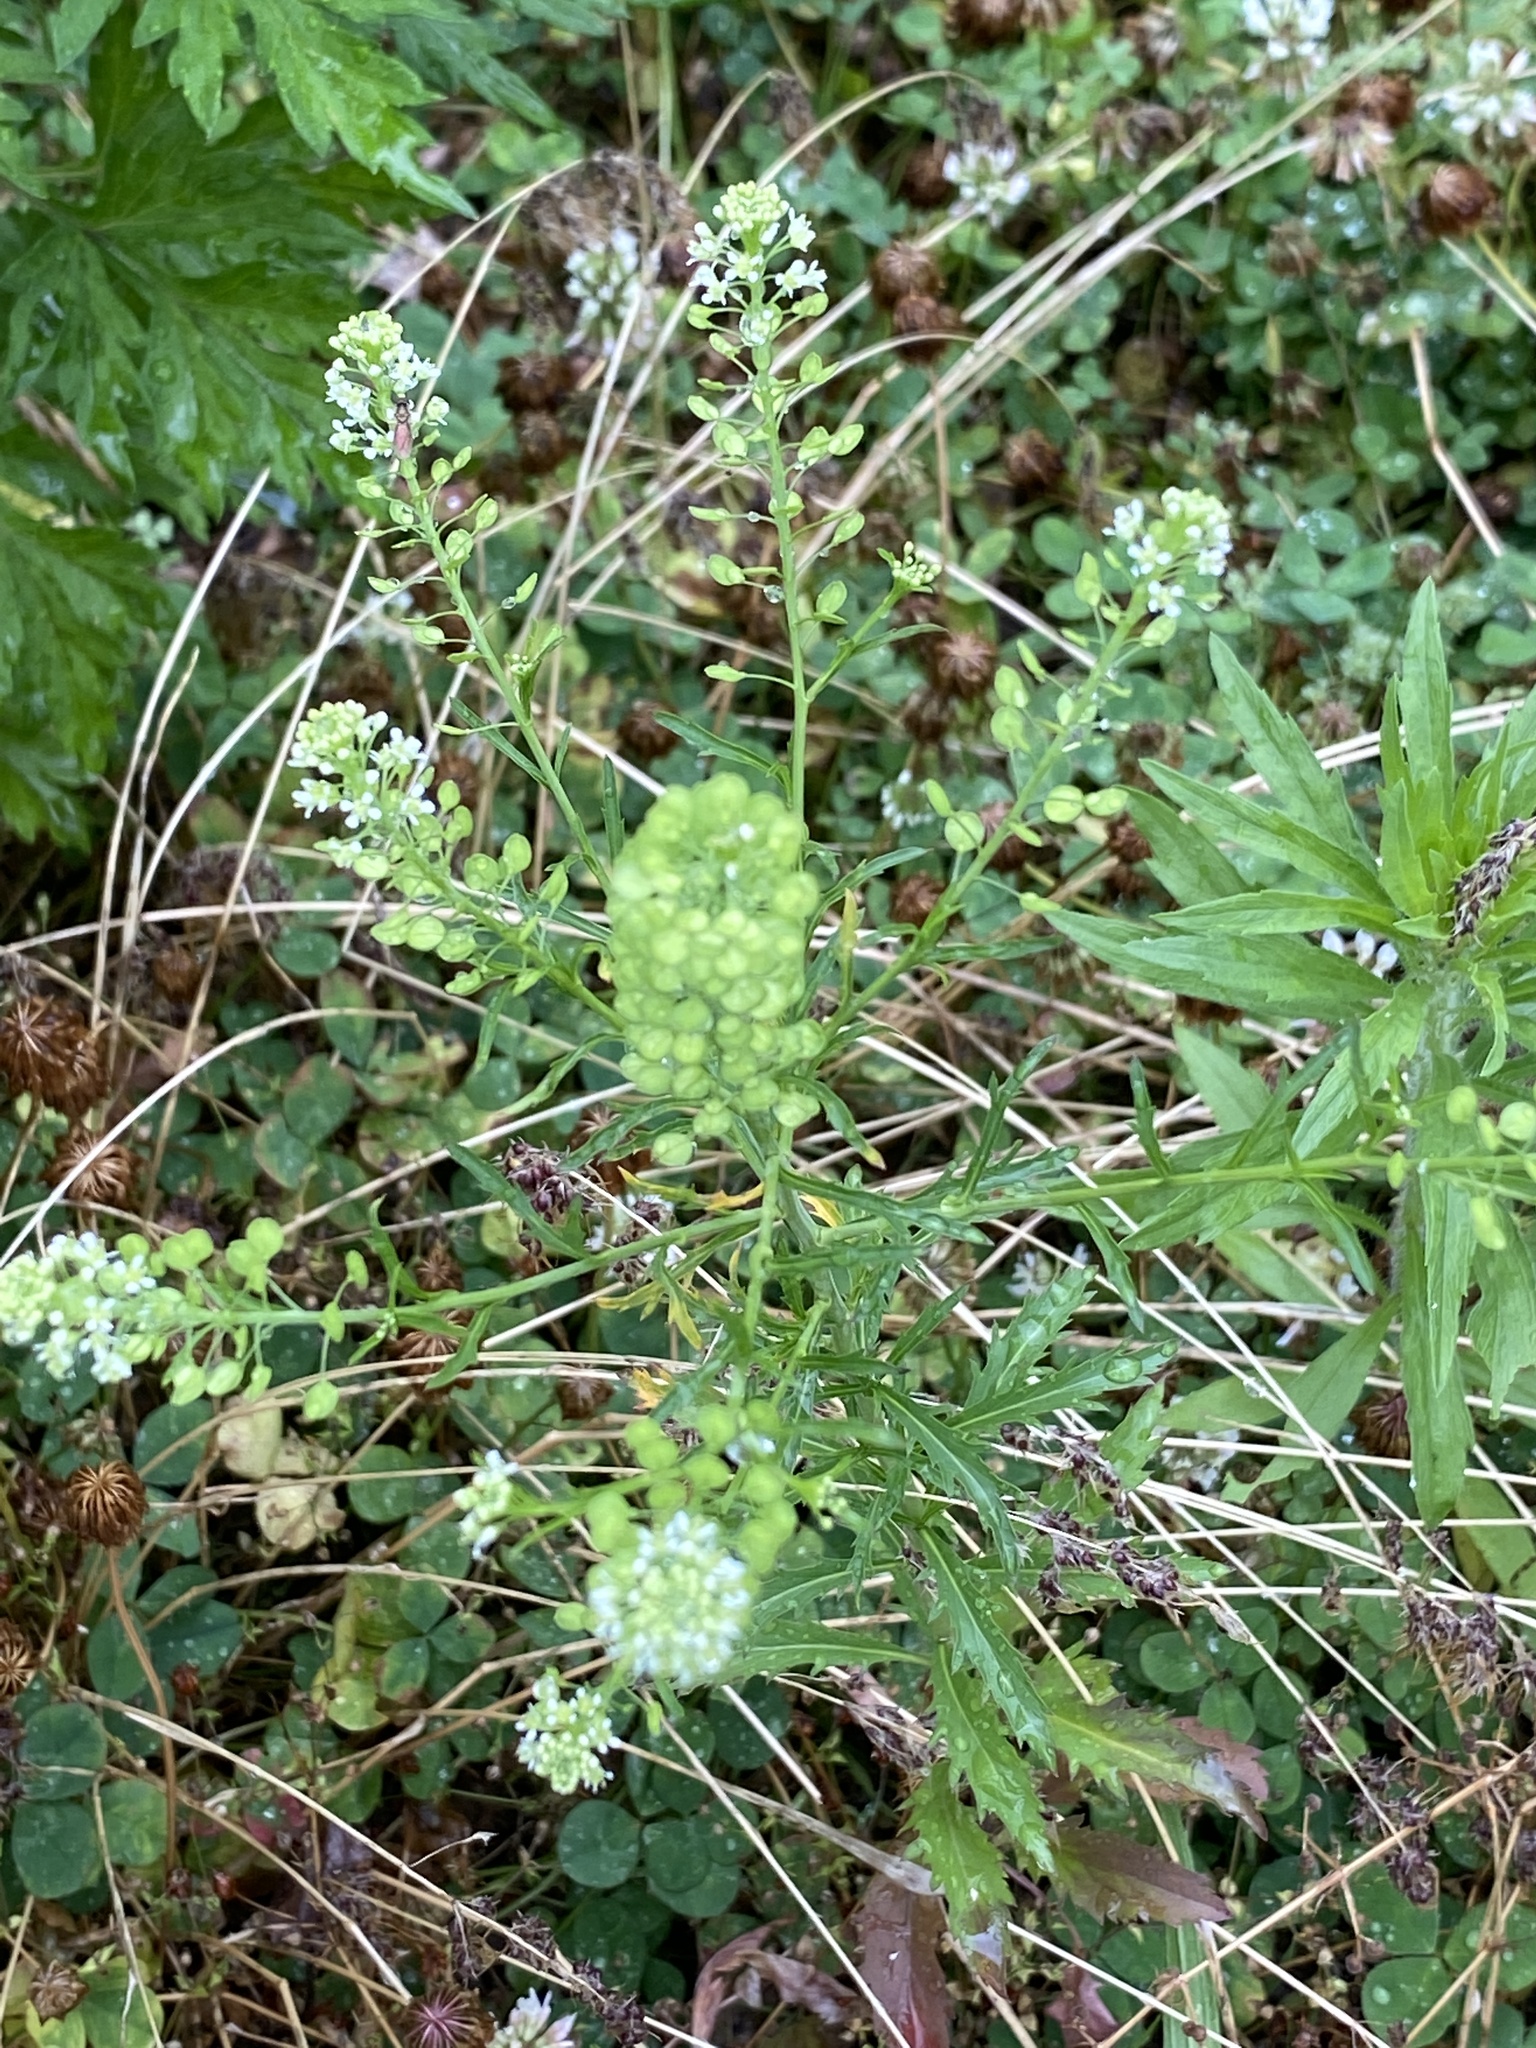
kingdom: Plantae
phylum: Tracheophyta
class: Magnoliopsida
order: Brassicales
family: Brassicaceae
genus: Lepidium
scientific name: Lepidium virginicum
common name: Least pepperwort
